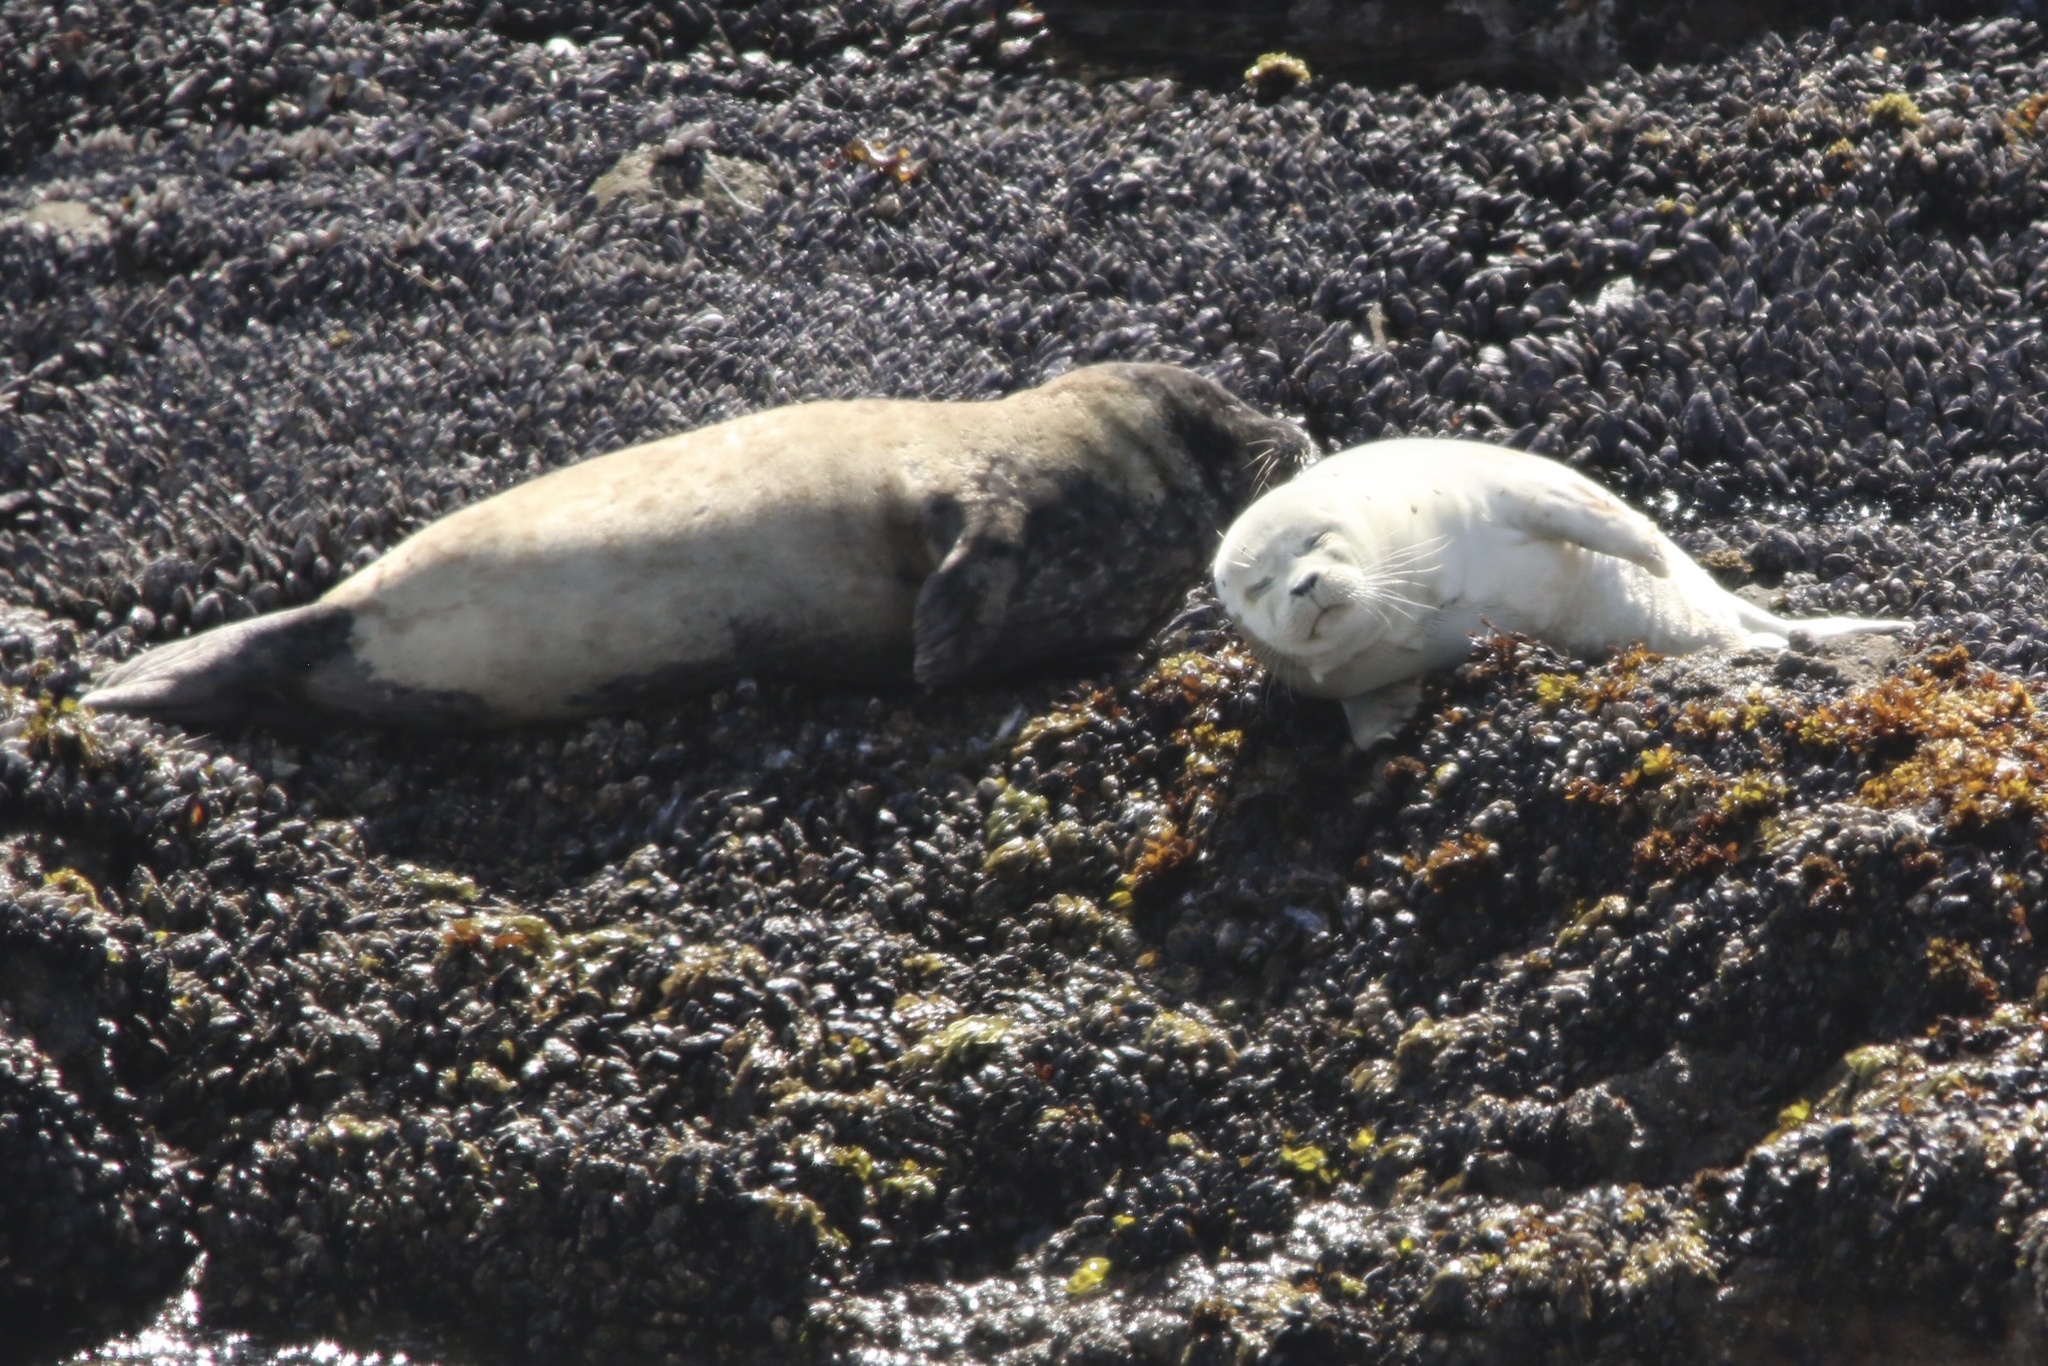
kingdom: Animalia
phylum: Chordata
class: Mammalia
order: Carnivora
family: Phocidae
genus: Phoca
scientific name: Phoca vitulina
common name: Harbor seal
